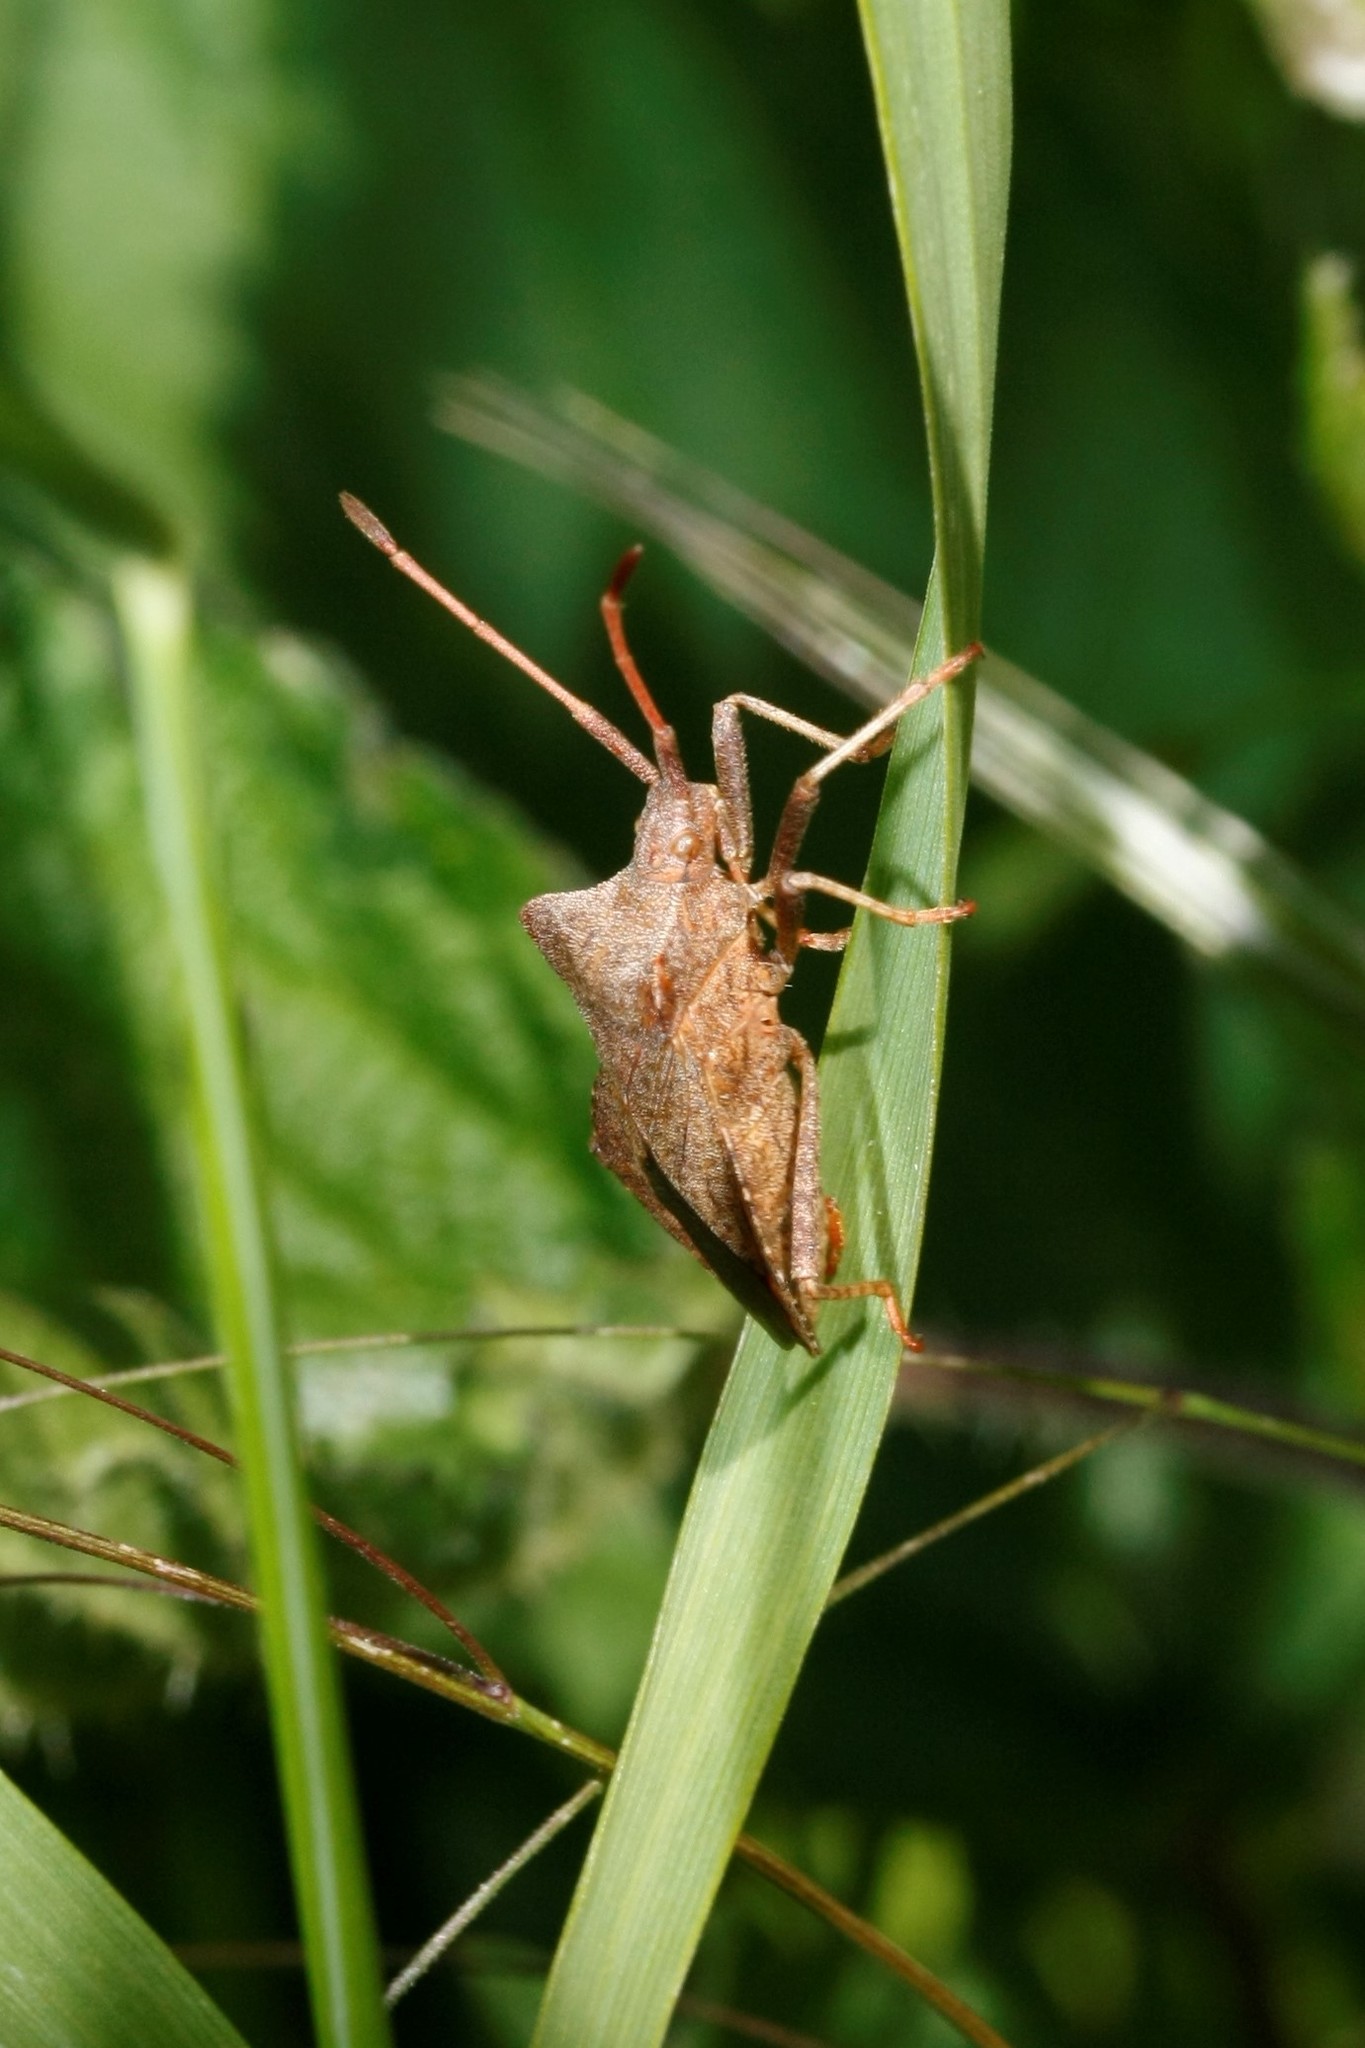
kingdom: Animalia
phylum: Arthropoda
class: Insecta
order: Hemiptera
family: Coreidae
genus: Coreus
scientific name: Coreus marginatus
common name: Dock bug
